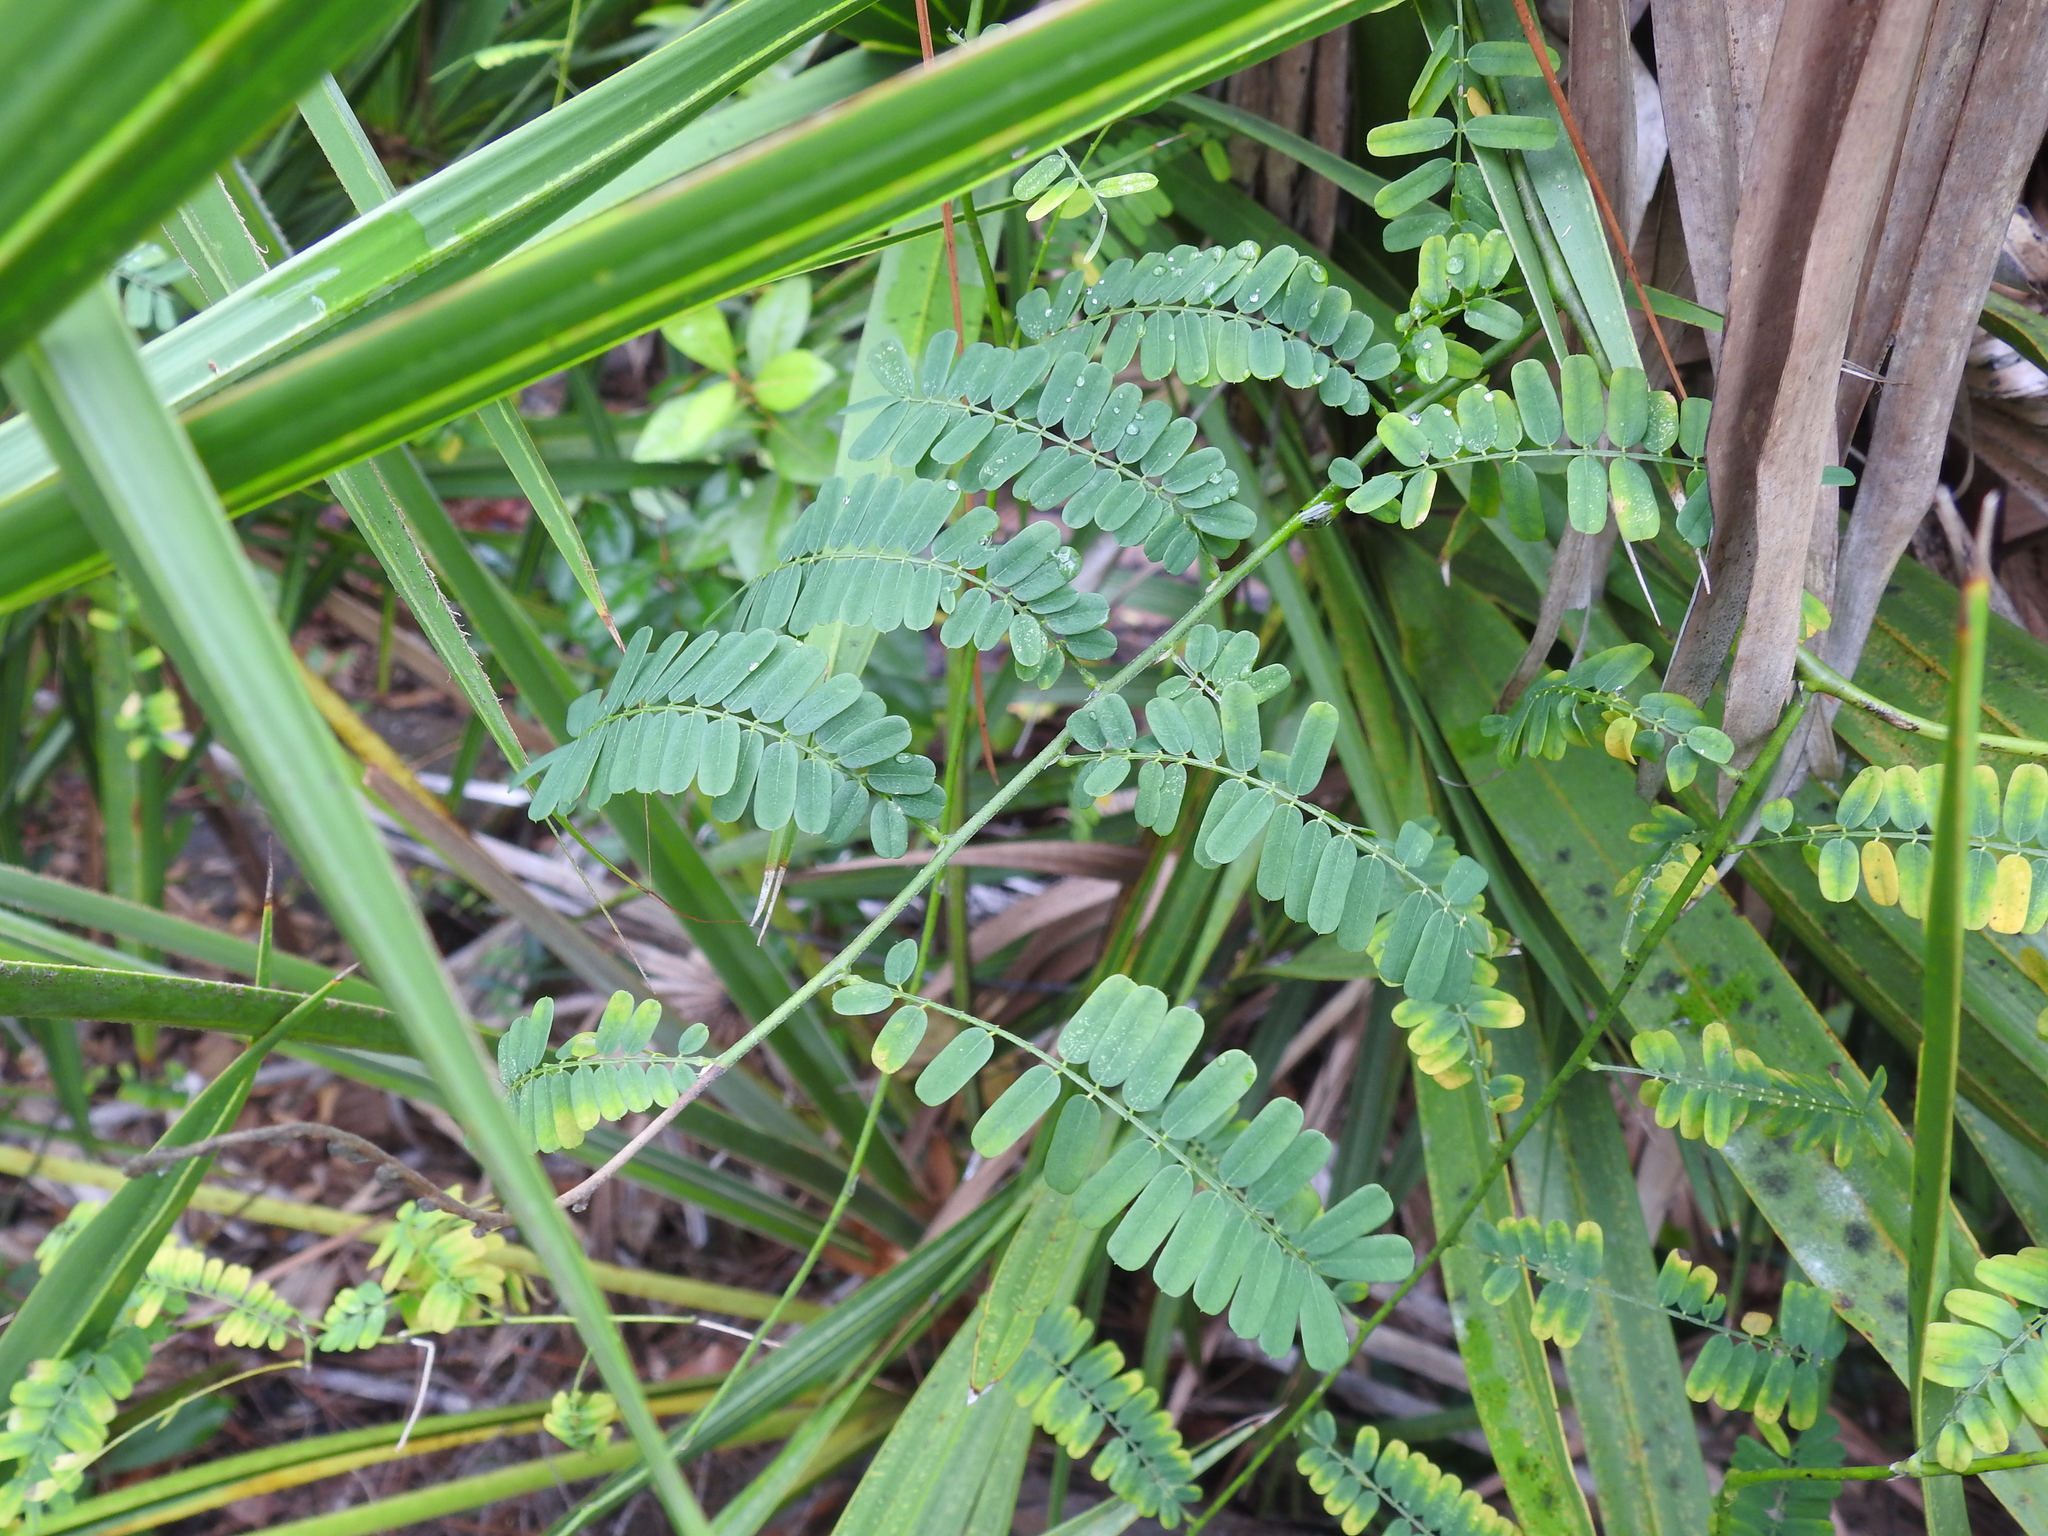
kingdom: Plantae
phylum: Tracheophyta
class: Magnoliopsida
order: Fabales
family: Fabaceae
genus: Abrus
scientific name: Abrus precatorius
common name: Rosarypea
